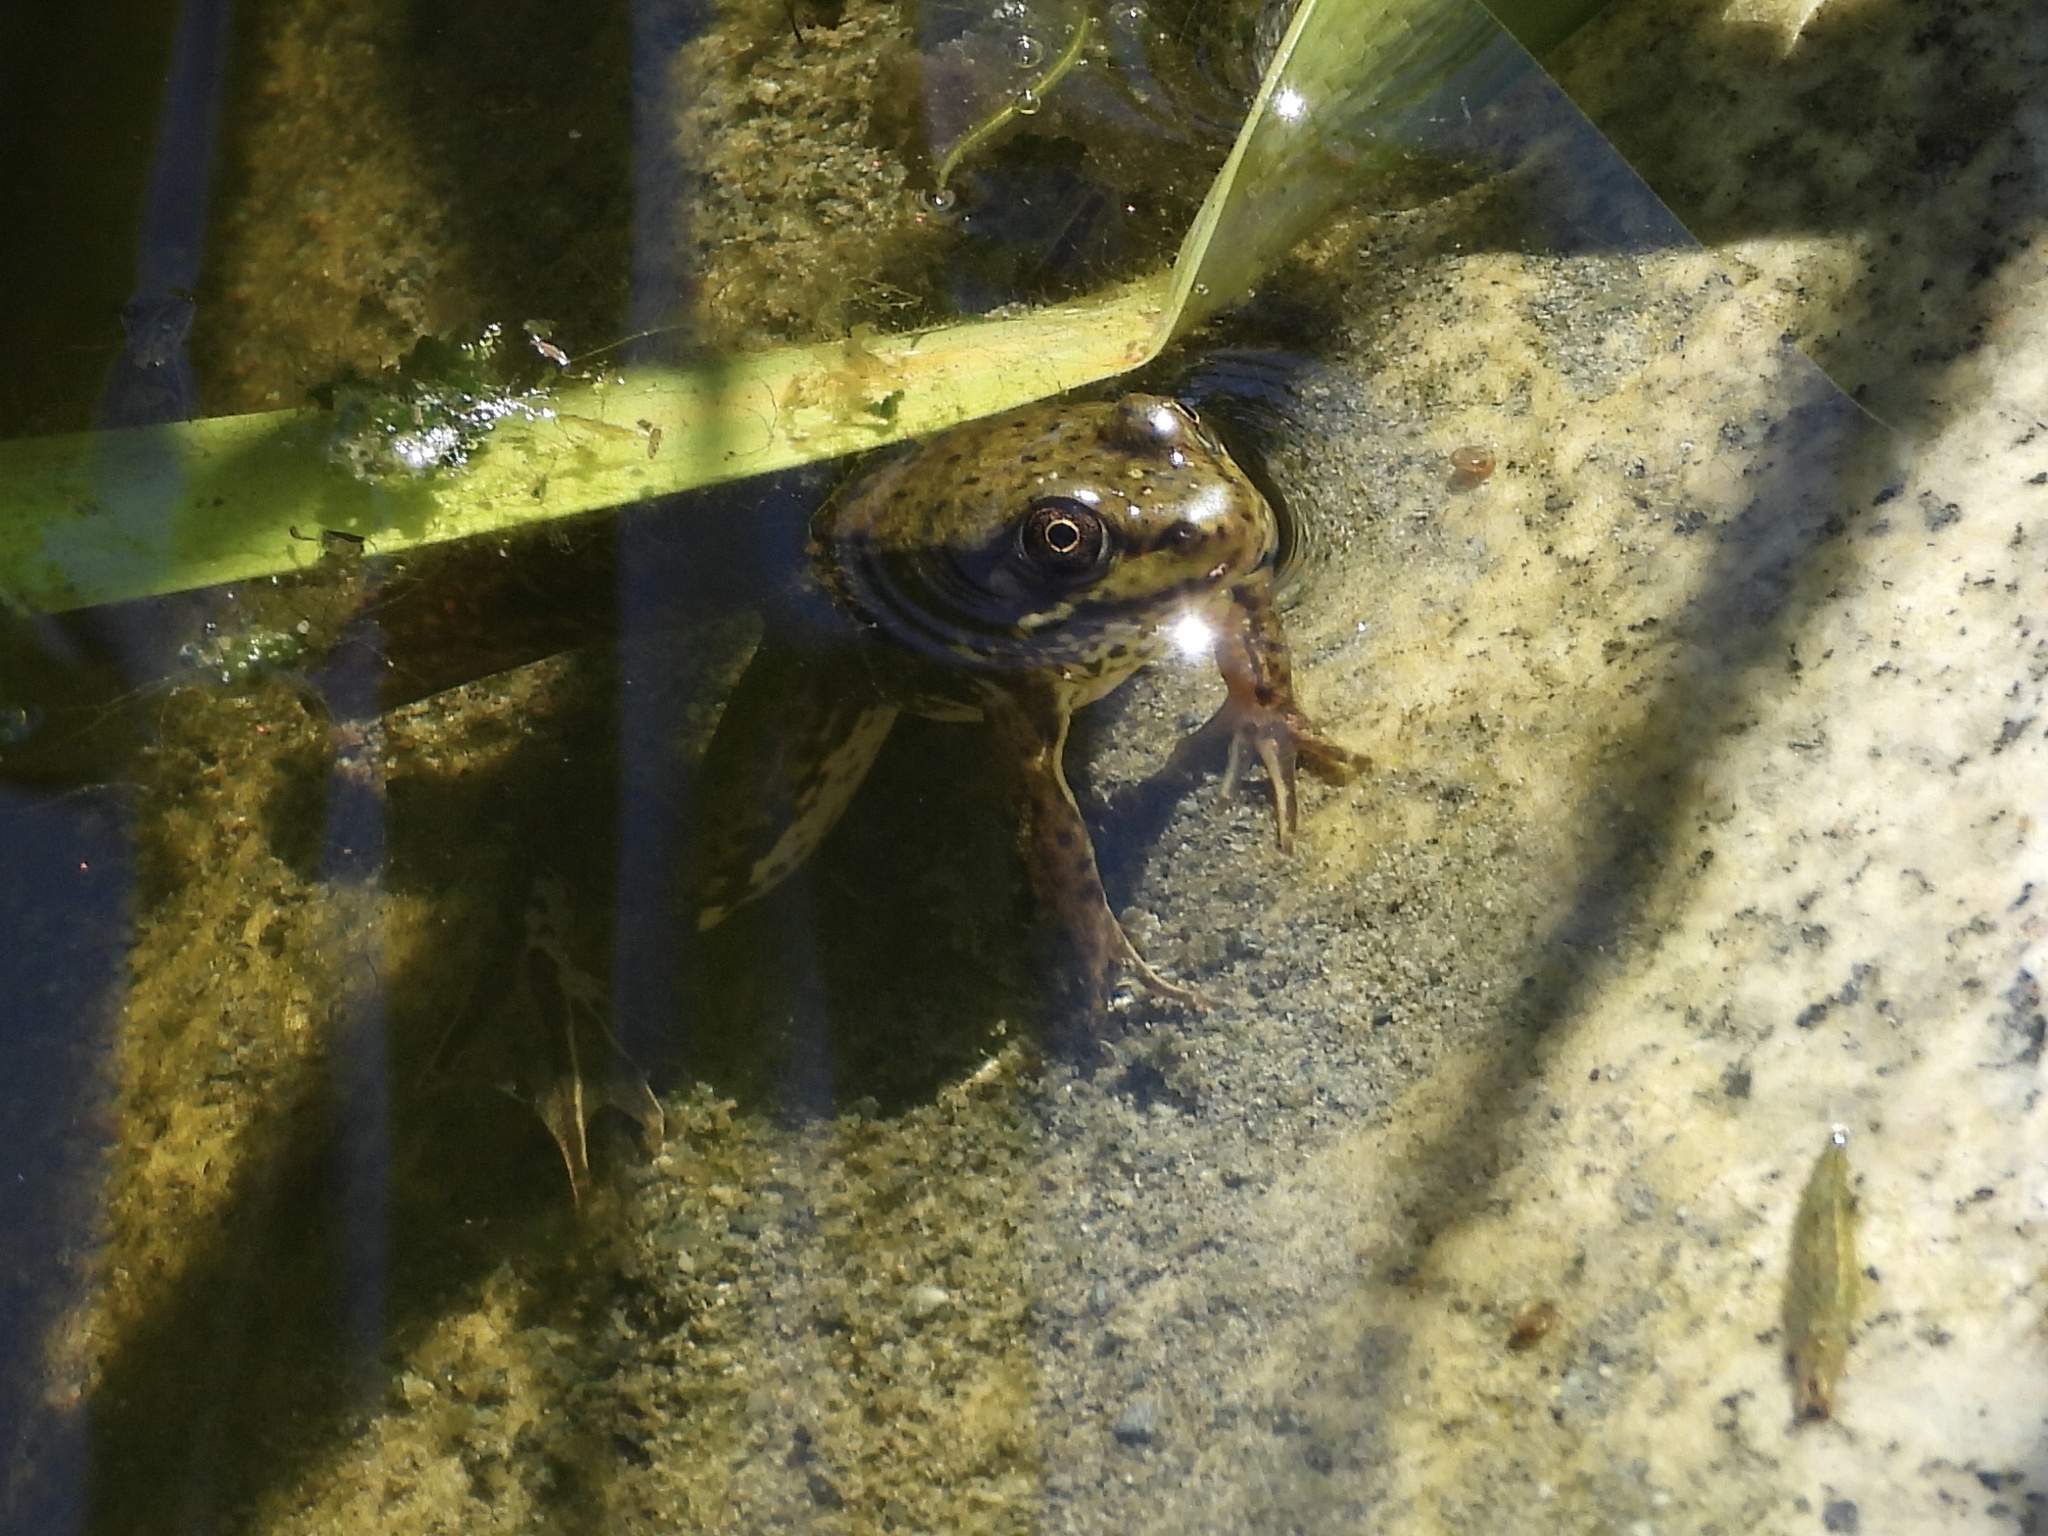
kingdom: Animalia
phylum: Chordata
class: Amphibia
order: Anura
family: Ranidae
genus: Lithobates
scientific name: Lithobates clamitans
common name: Green frog
